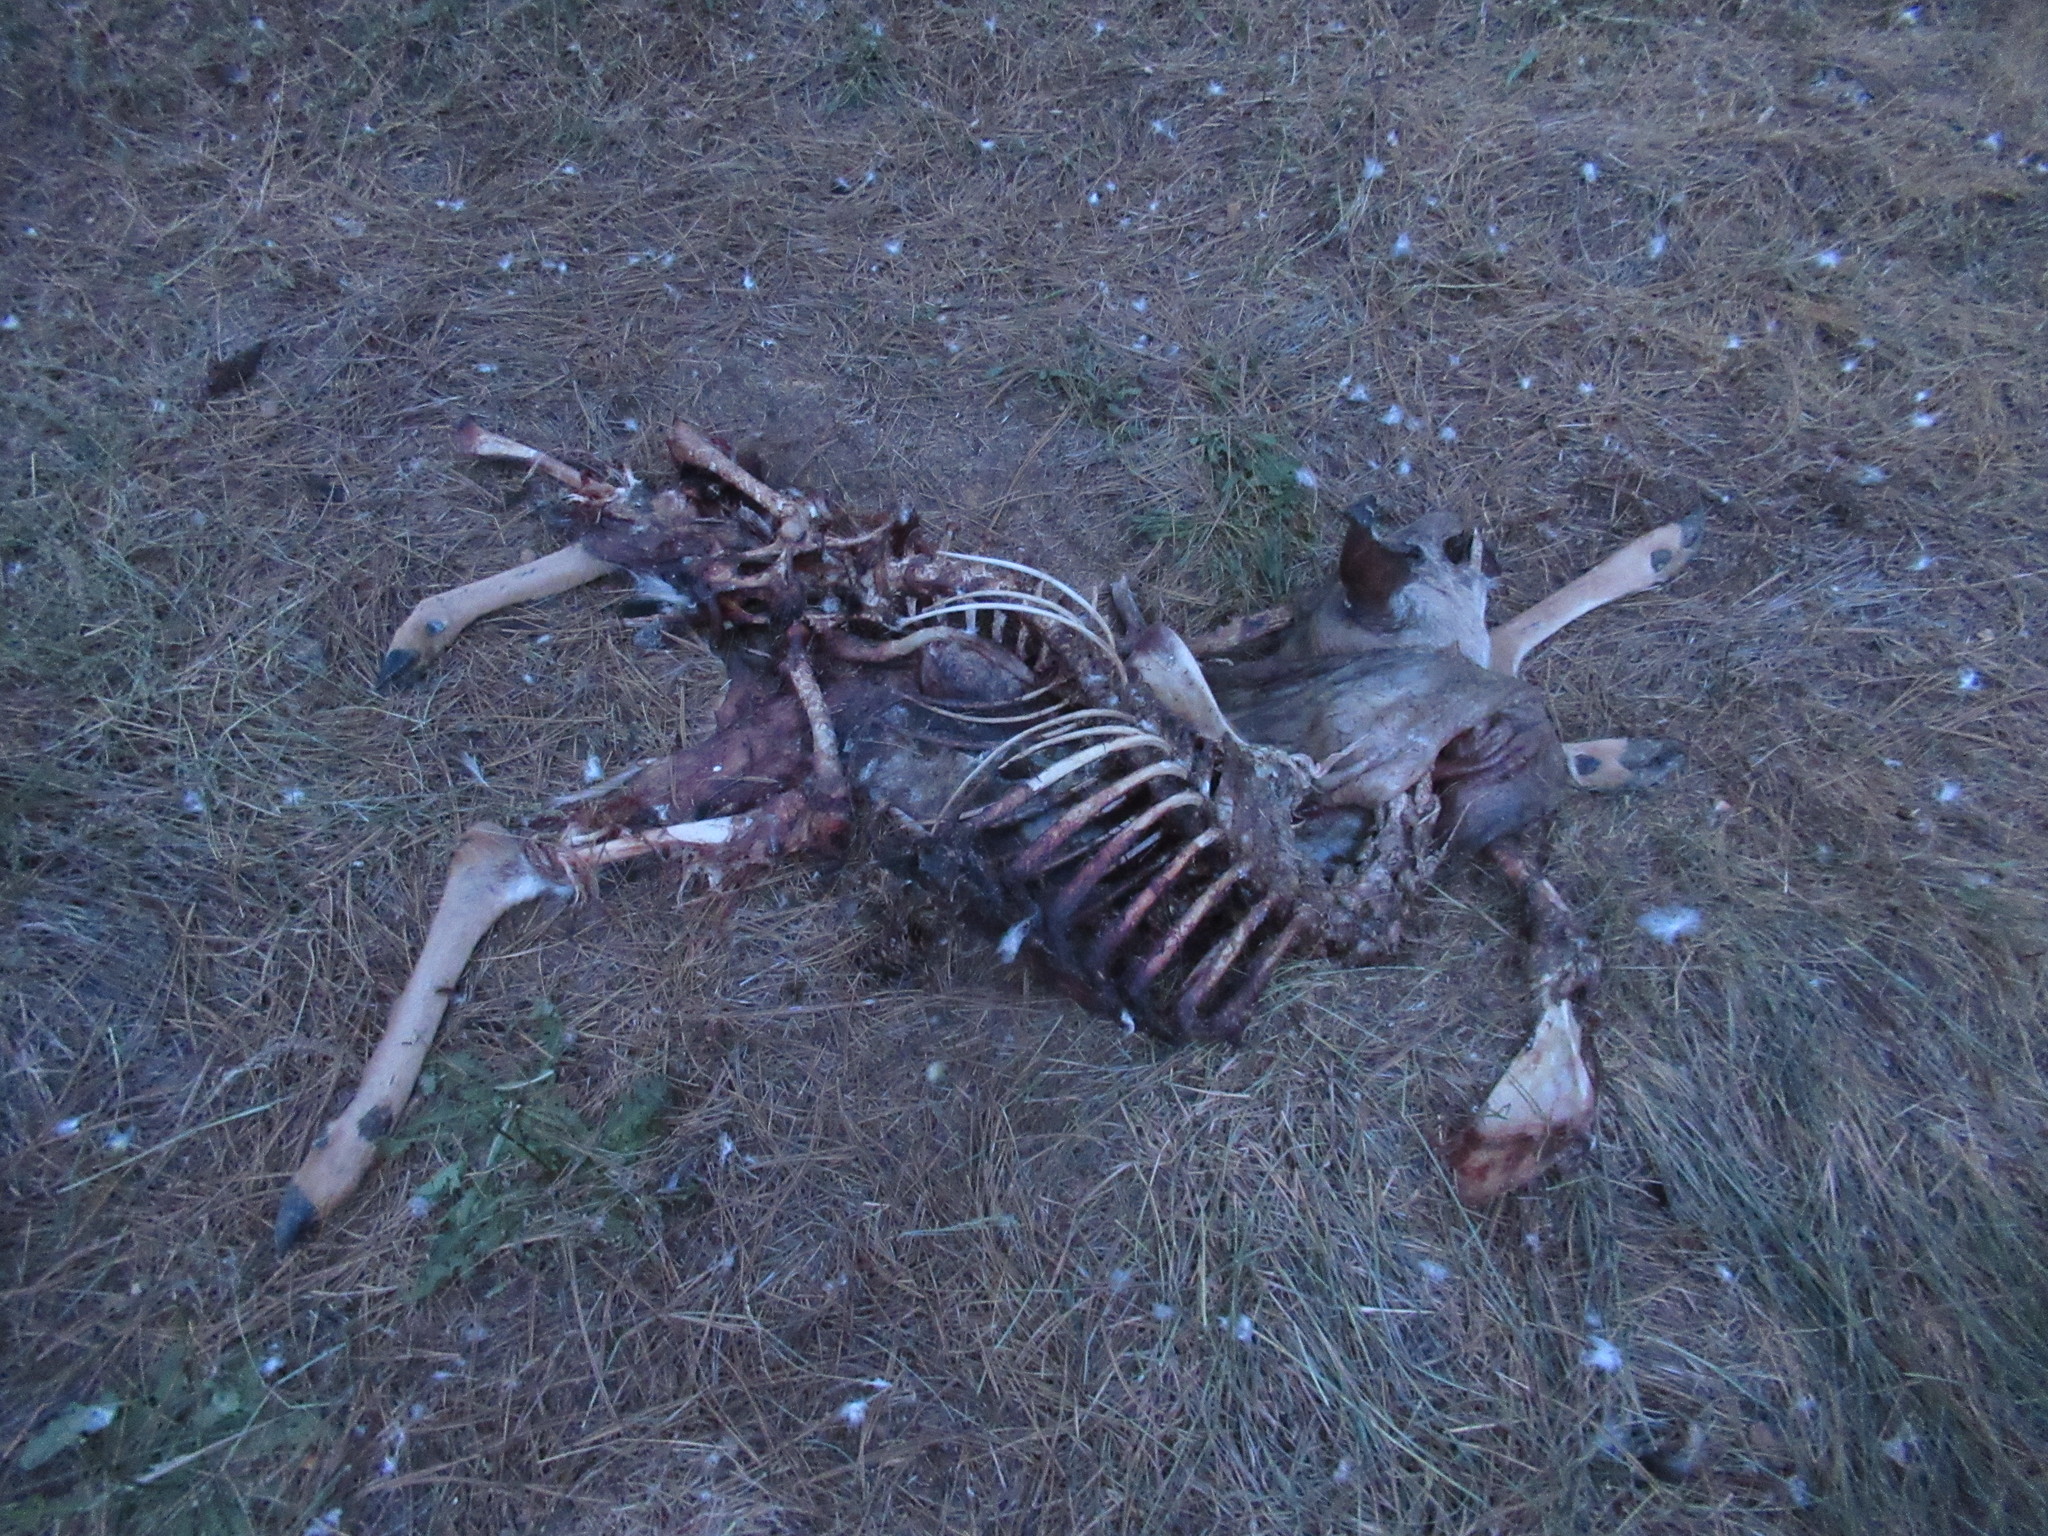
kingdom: Animalia
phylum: Chordata
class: Mammalia
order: Artiodactyla
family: Cervidae
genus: Odocoileus
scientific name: Odocoileus hemionus
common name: Mule deer
